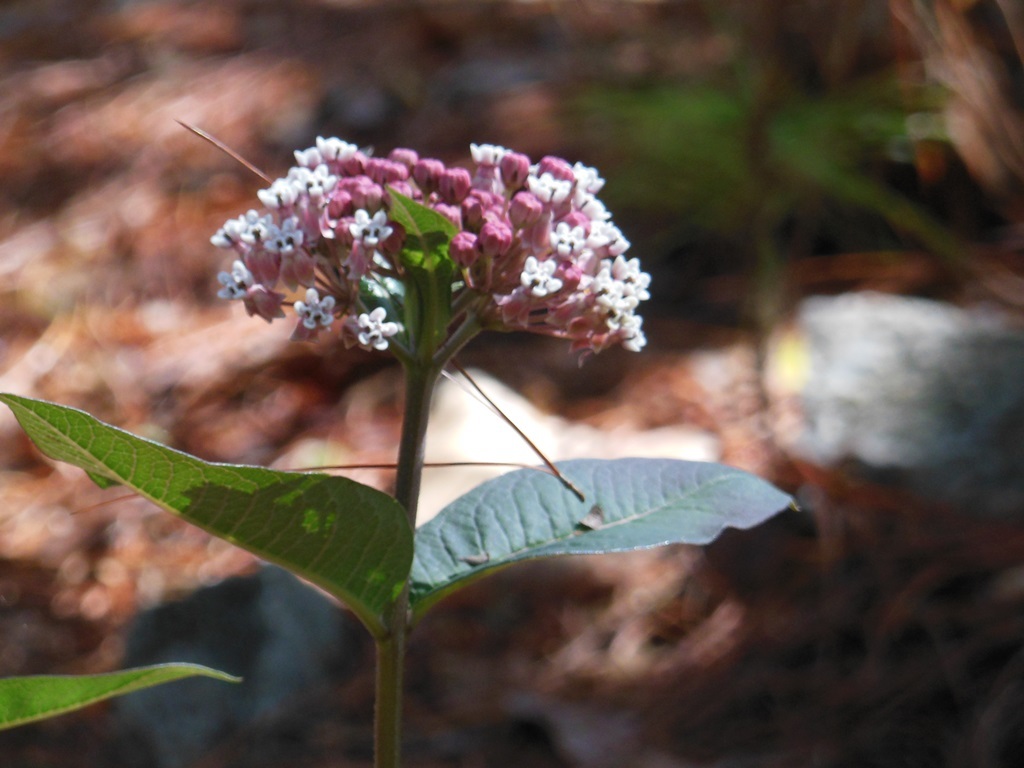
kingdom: Plantae
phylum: Tracheophyta
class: Magnoliopsida
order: Gentianales
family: Apocynaceae
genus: Asclepias
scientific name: Asclepias pellucida
